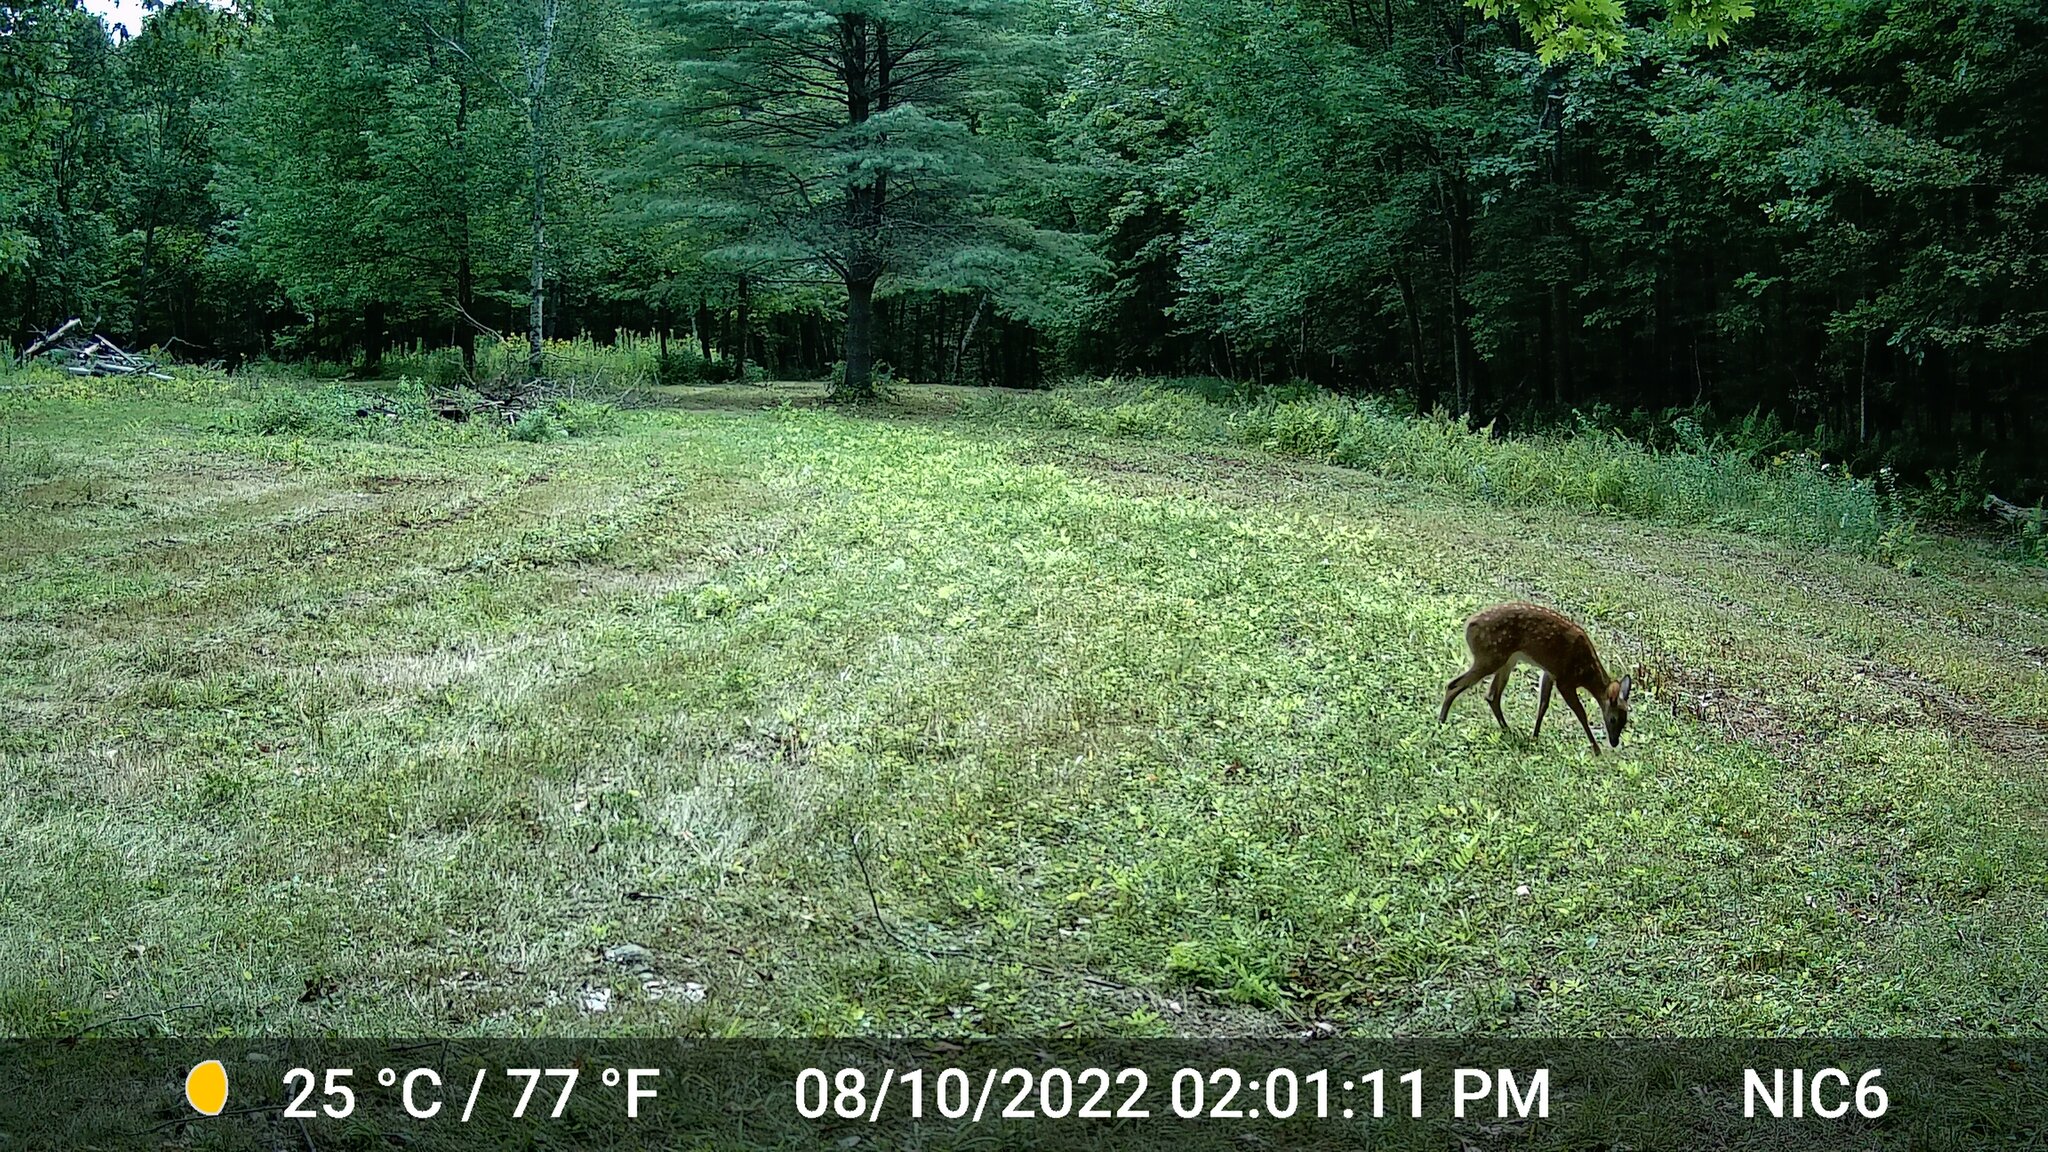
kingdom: Animalia
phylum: Chordata
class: Mammalia
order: Artiodactyla
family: Cervidae
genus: Odocoileus
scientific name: Odocoileus virginianus
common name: White-tailed deer
